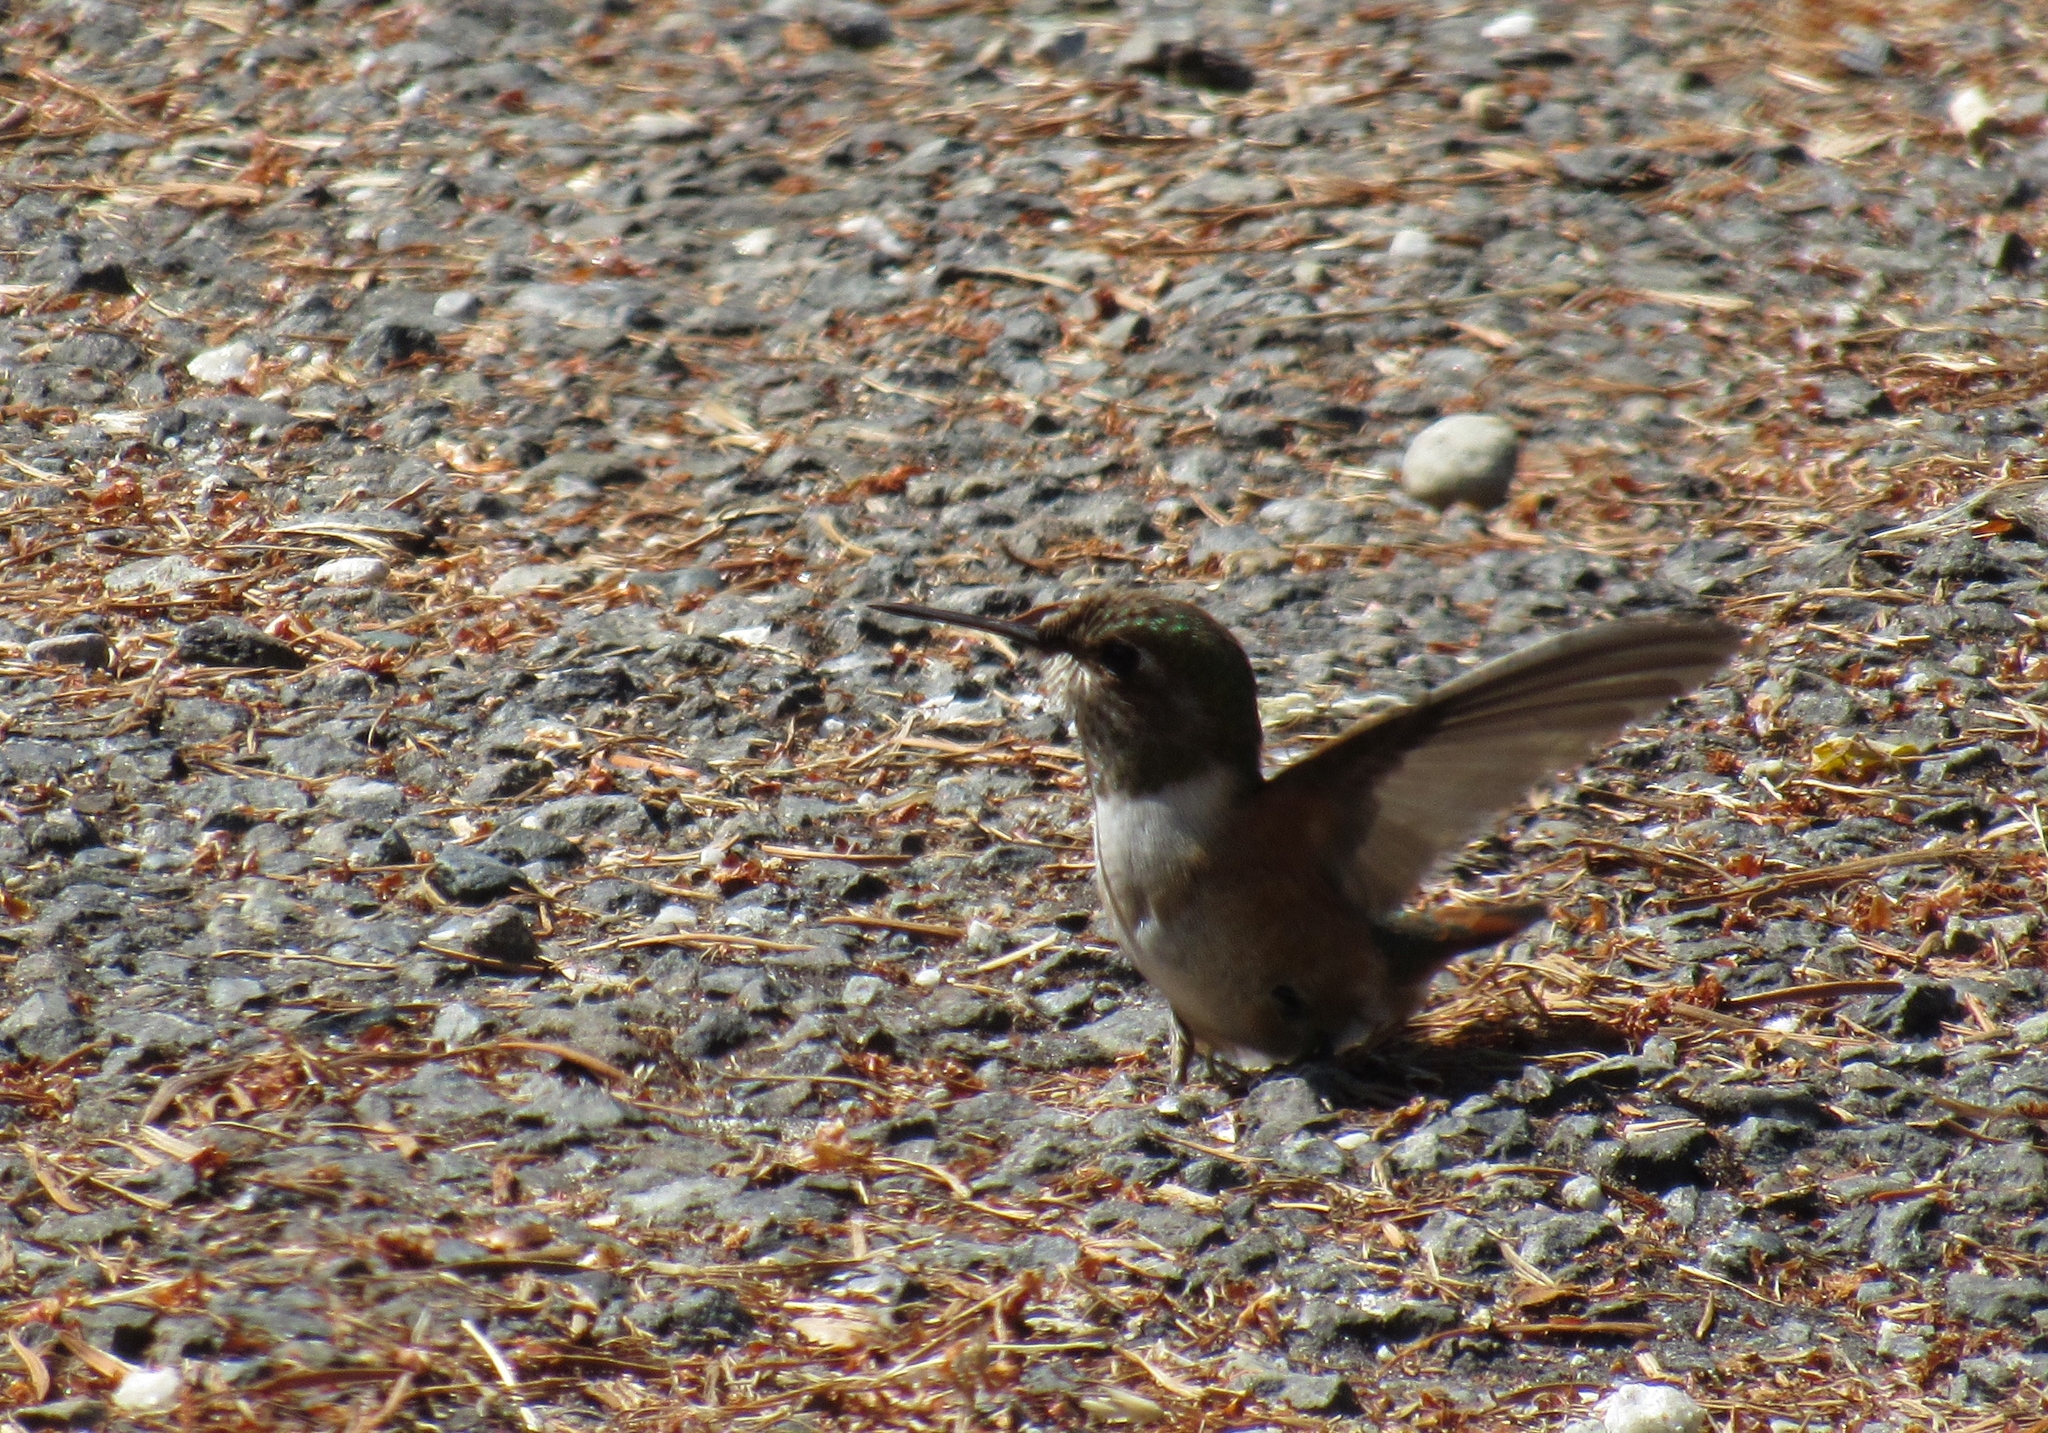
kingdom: Animalia
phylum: Chordata
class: Aves
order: Apodiformes
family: Trochilidae
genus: Selasphorus
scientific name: Selasphorus rufus
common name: Rufous hummingbird
